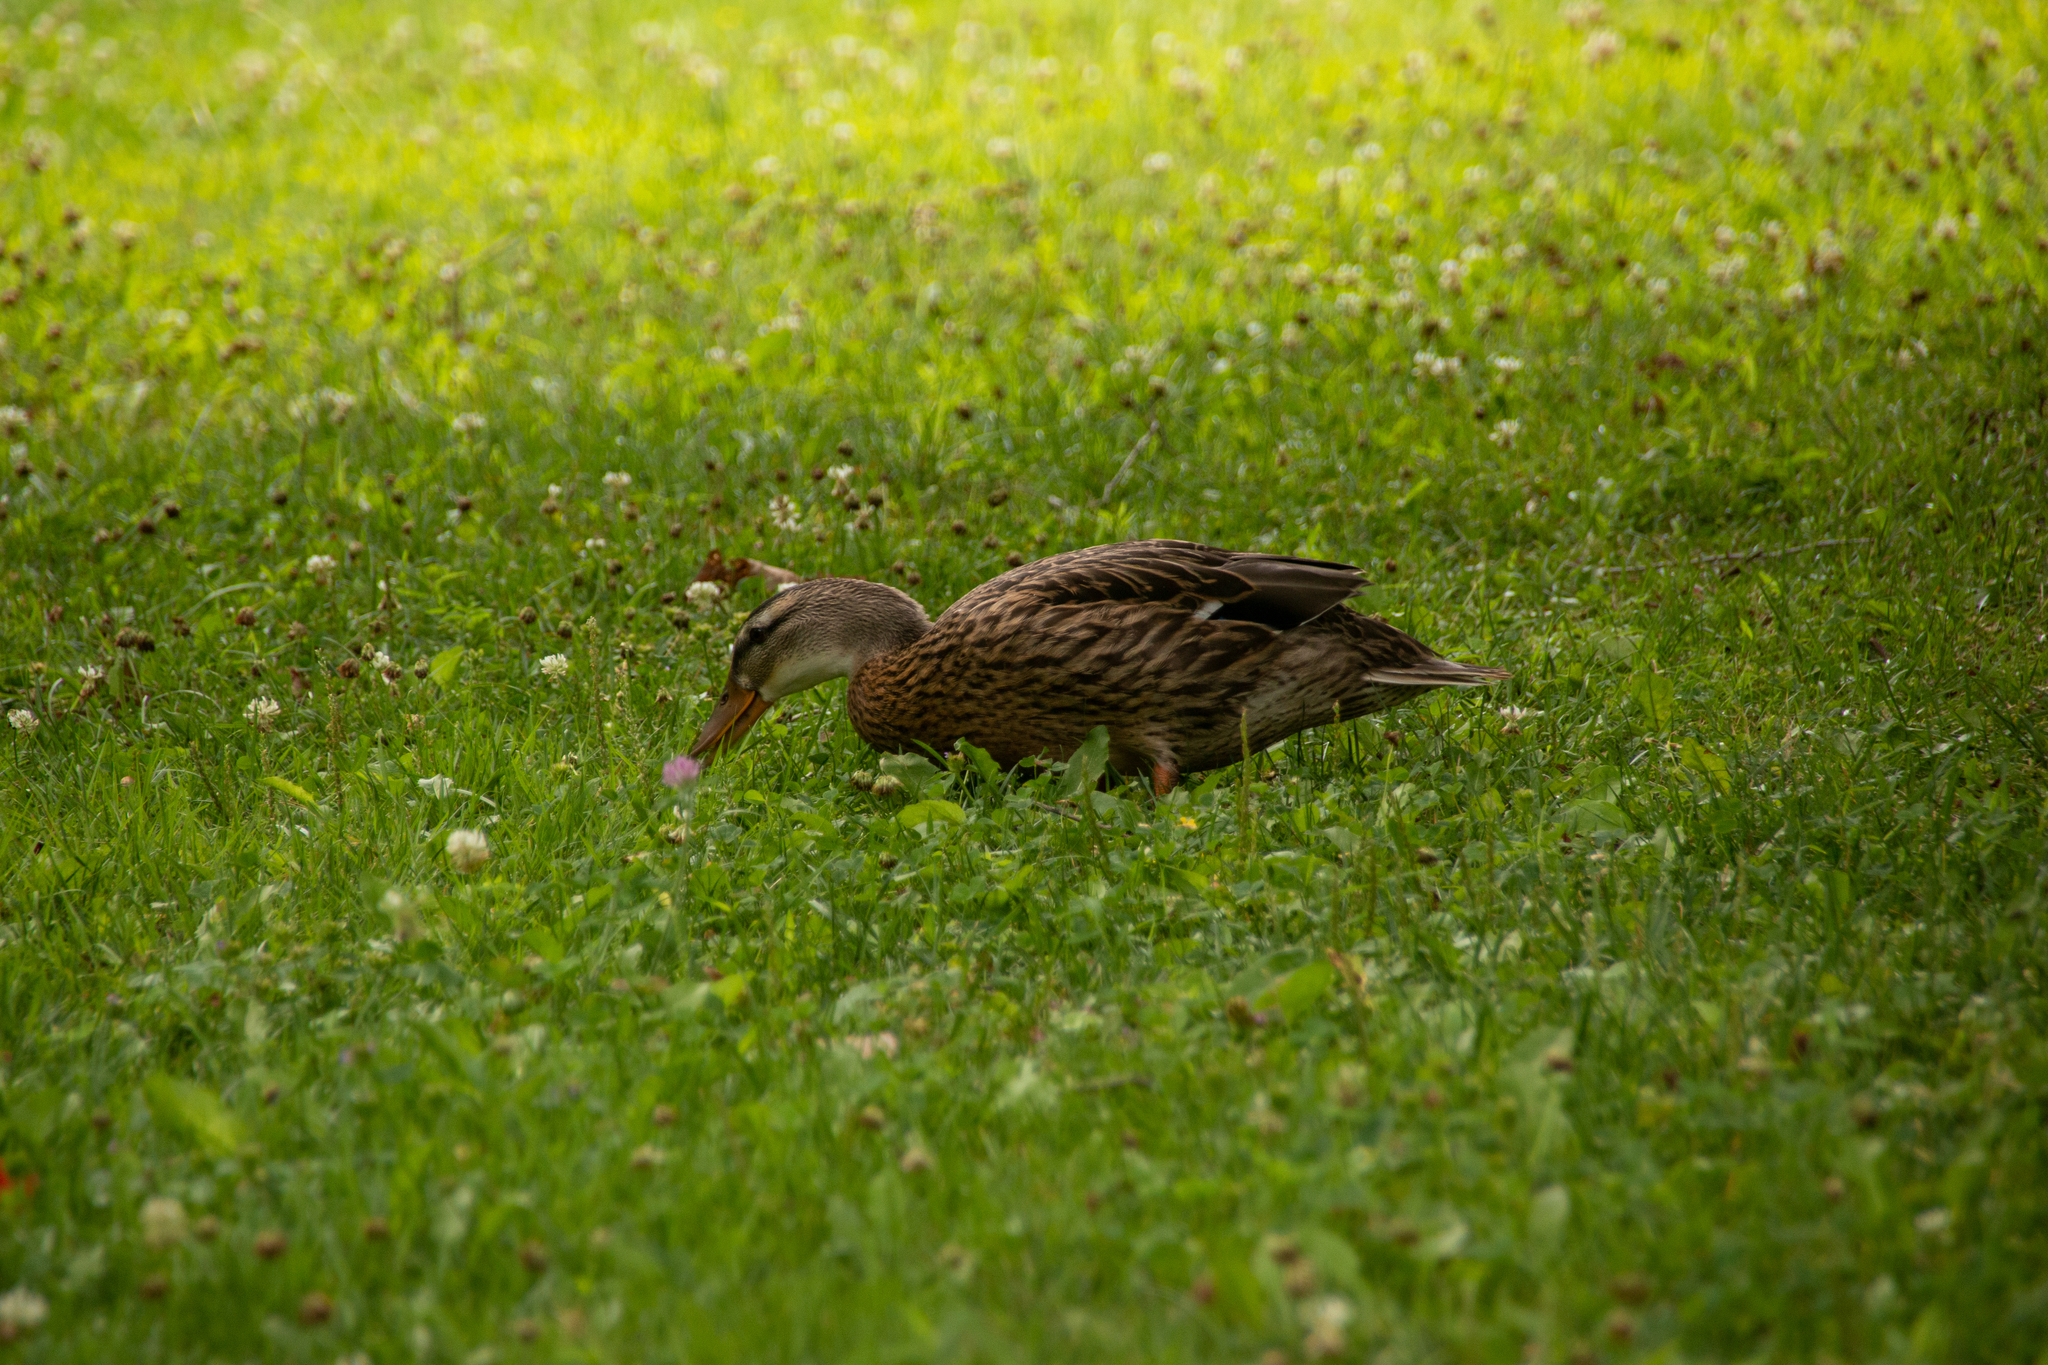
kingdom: Animalia
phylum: Chordata
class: Aves
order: Anseriformes
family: Anatidae
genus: Anas
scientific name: Anas platyrhynchos
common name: Mallard
